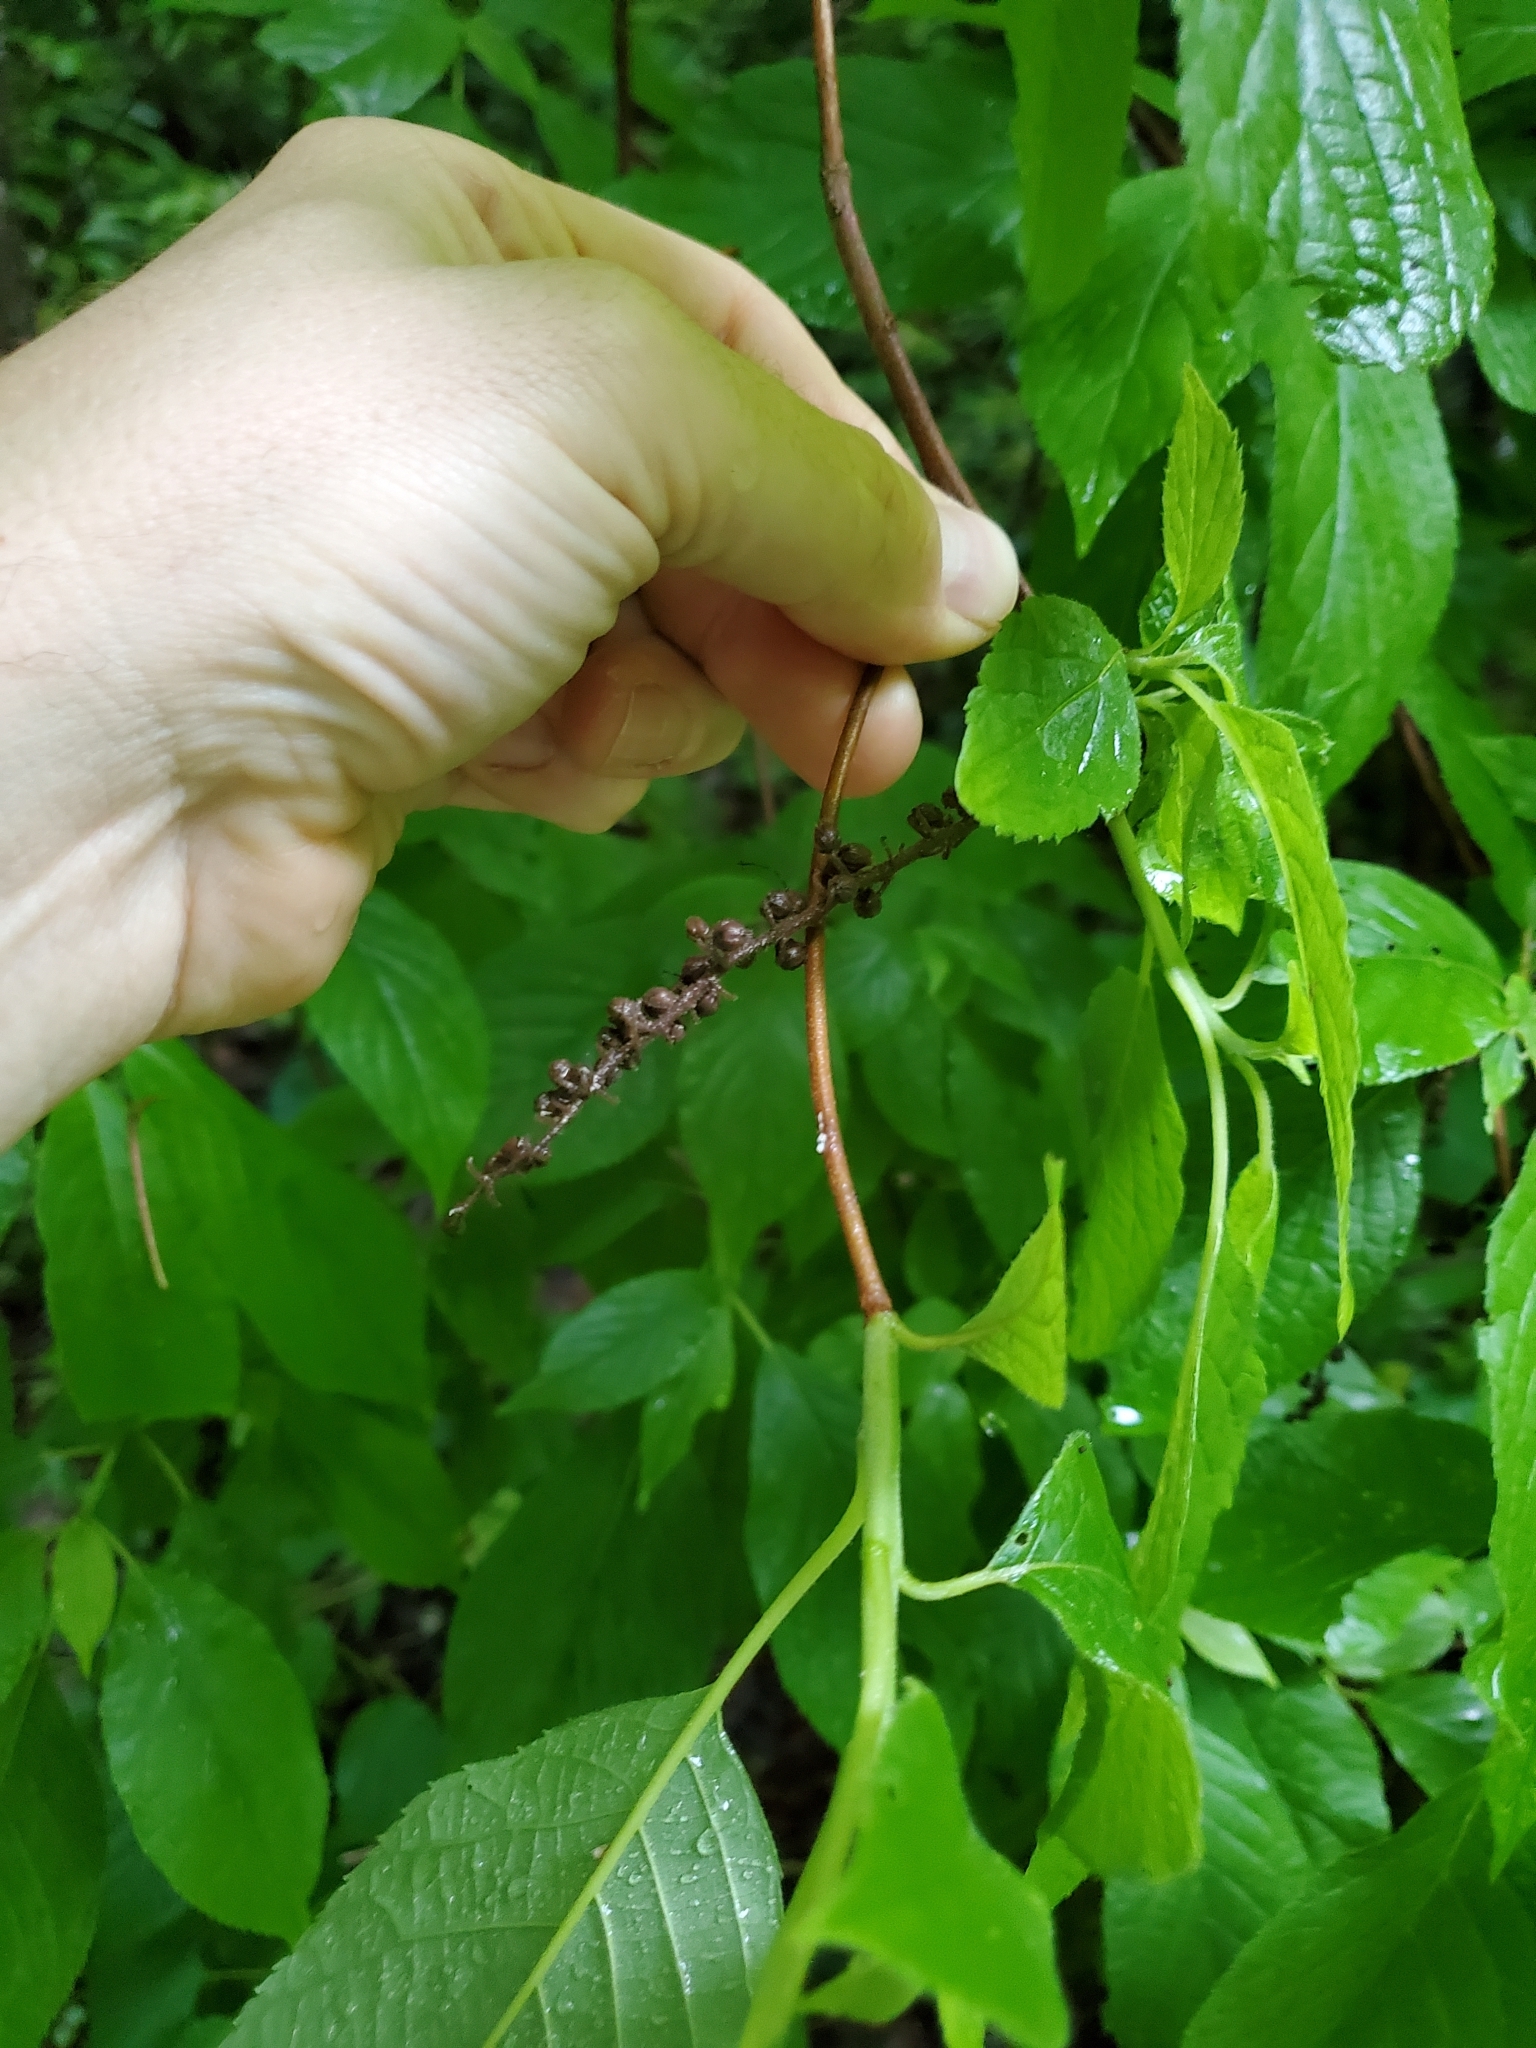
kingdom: Plantae
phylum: Tracheophyta
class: Magnoliopsida
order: Ericales
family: Clethraceae
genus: Clethra
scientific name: Clethra acuminata
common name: Mountain sweet pepperbush
